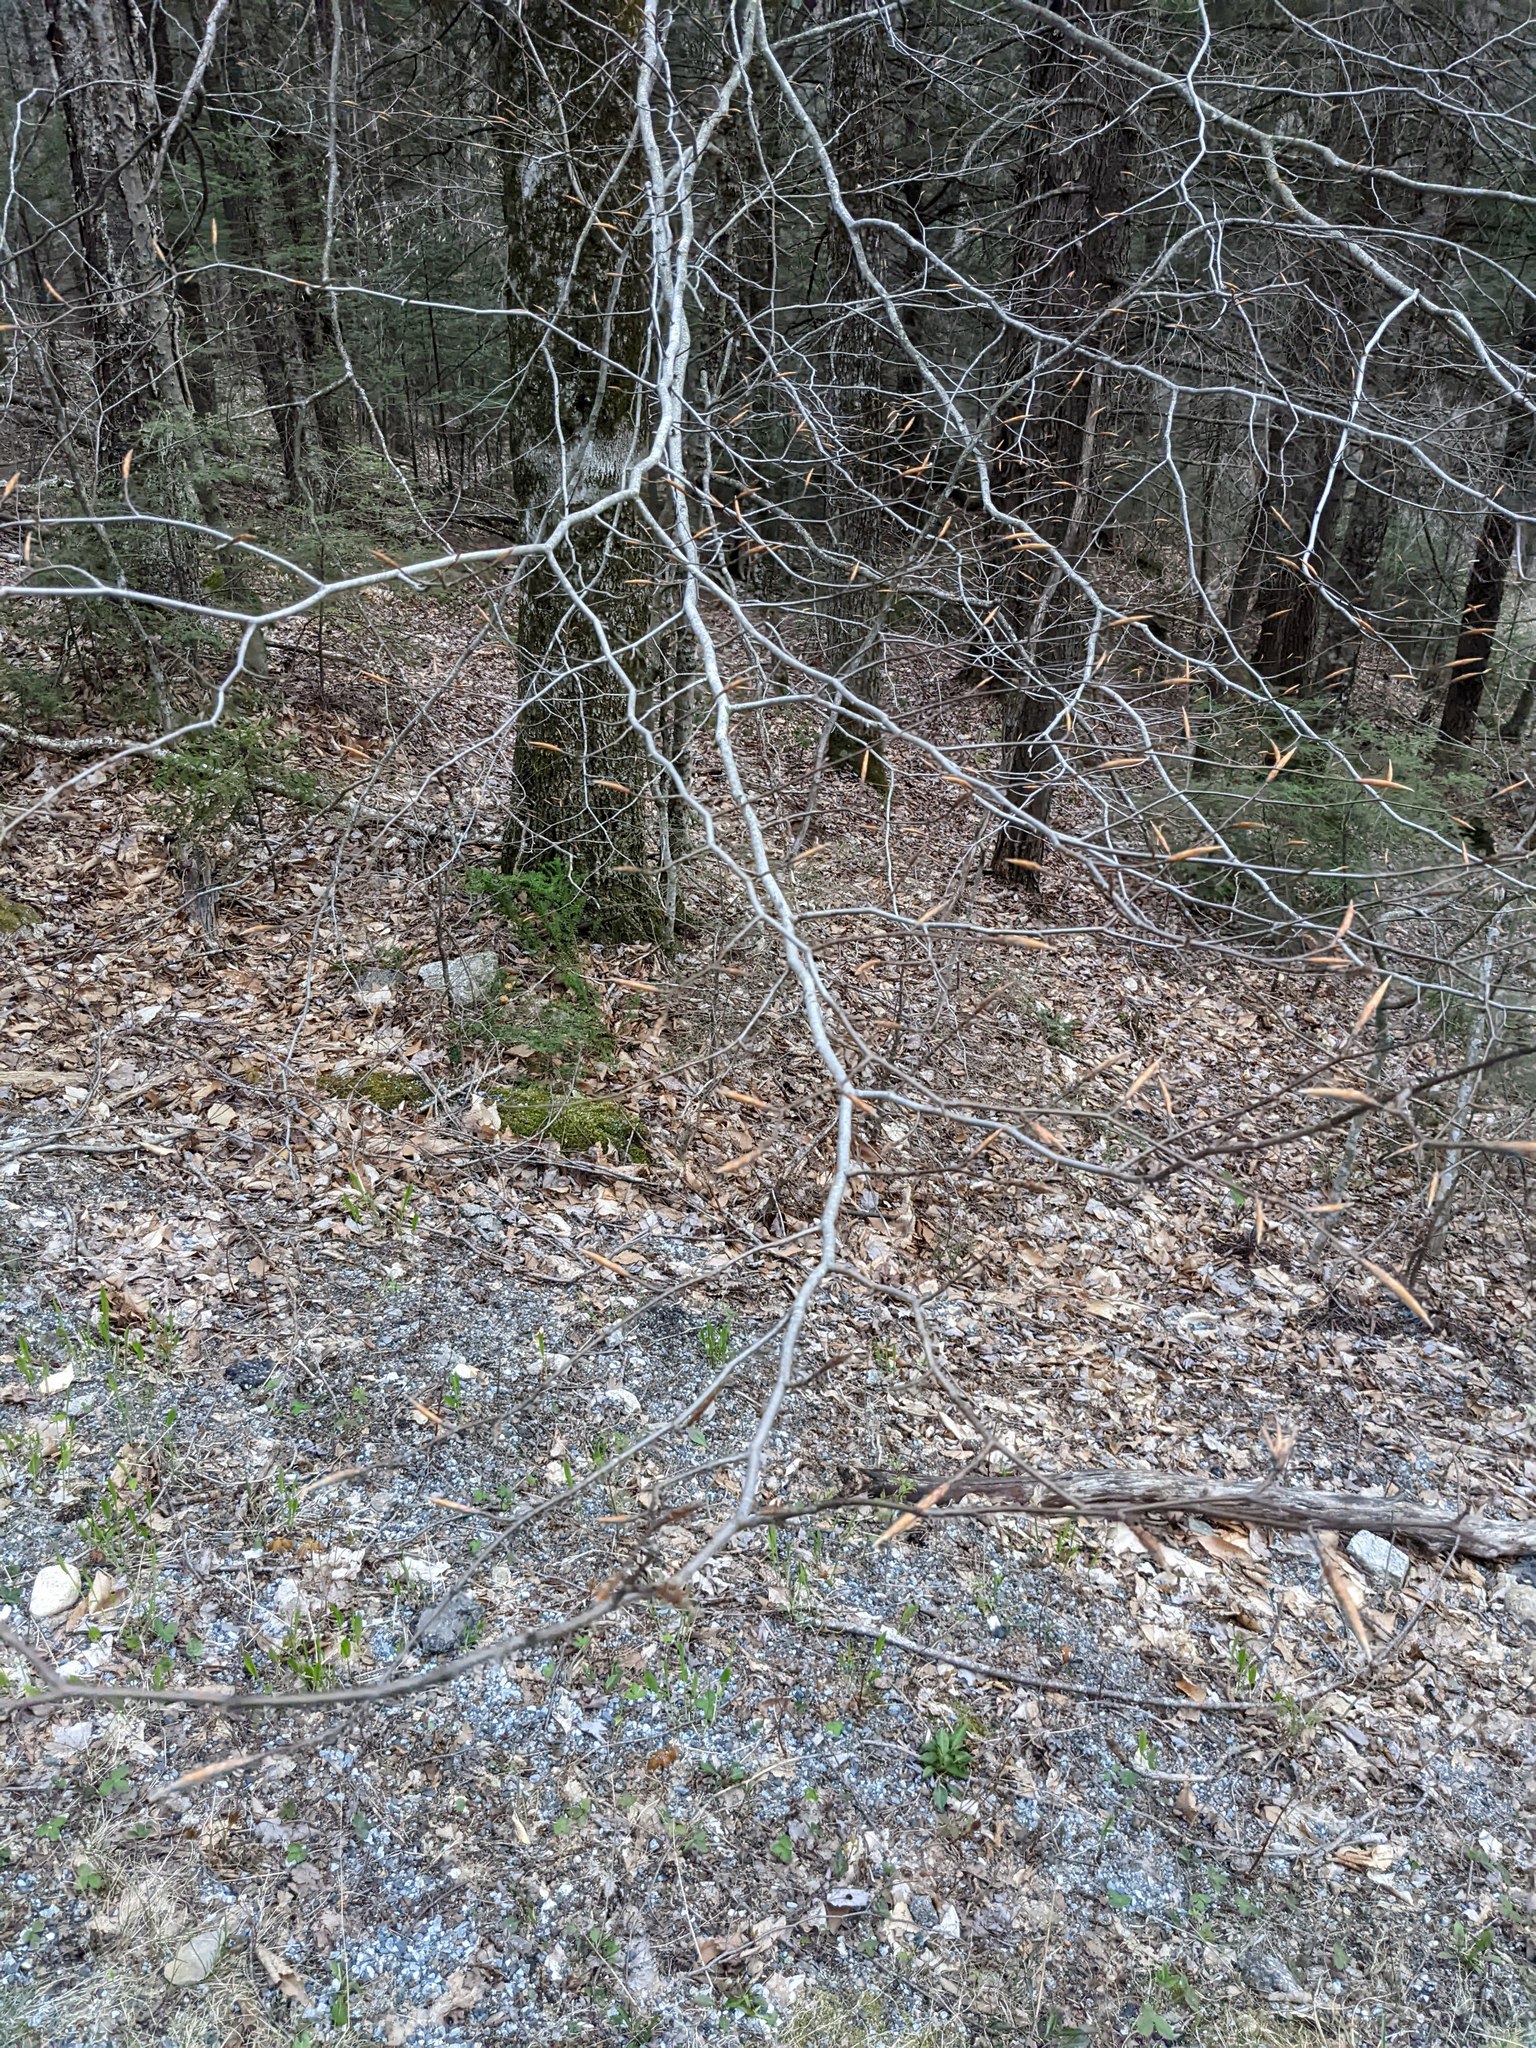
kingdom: Plantae
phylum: Tracheophyta
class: Magnoliopsida
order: Fagales
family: Fagaceae
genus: Fagus
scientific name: Fagus grandifolia
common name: American beech
